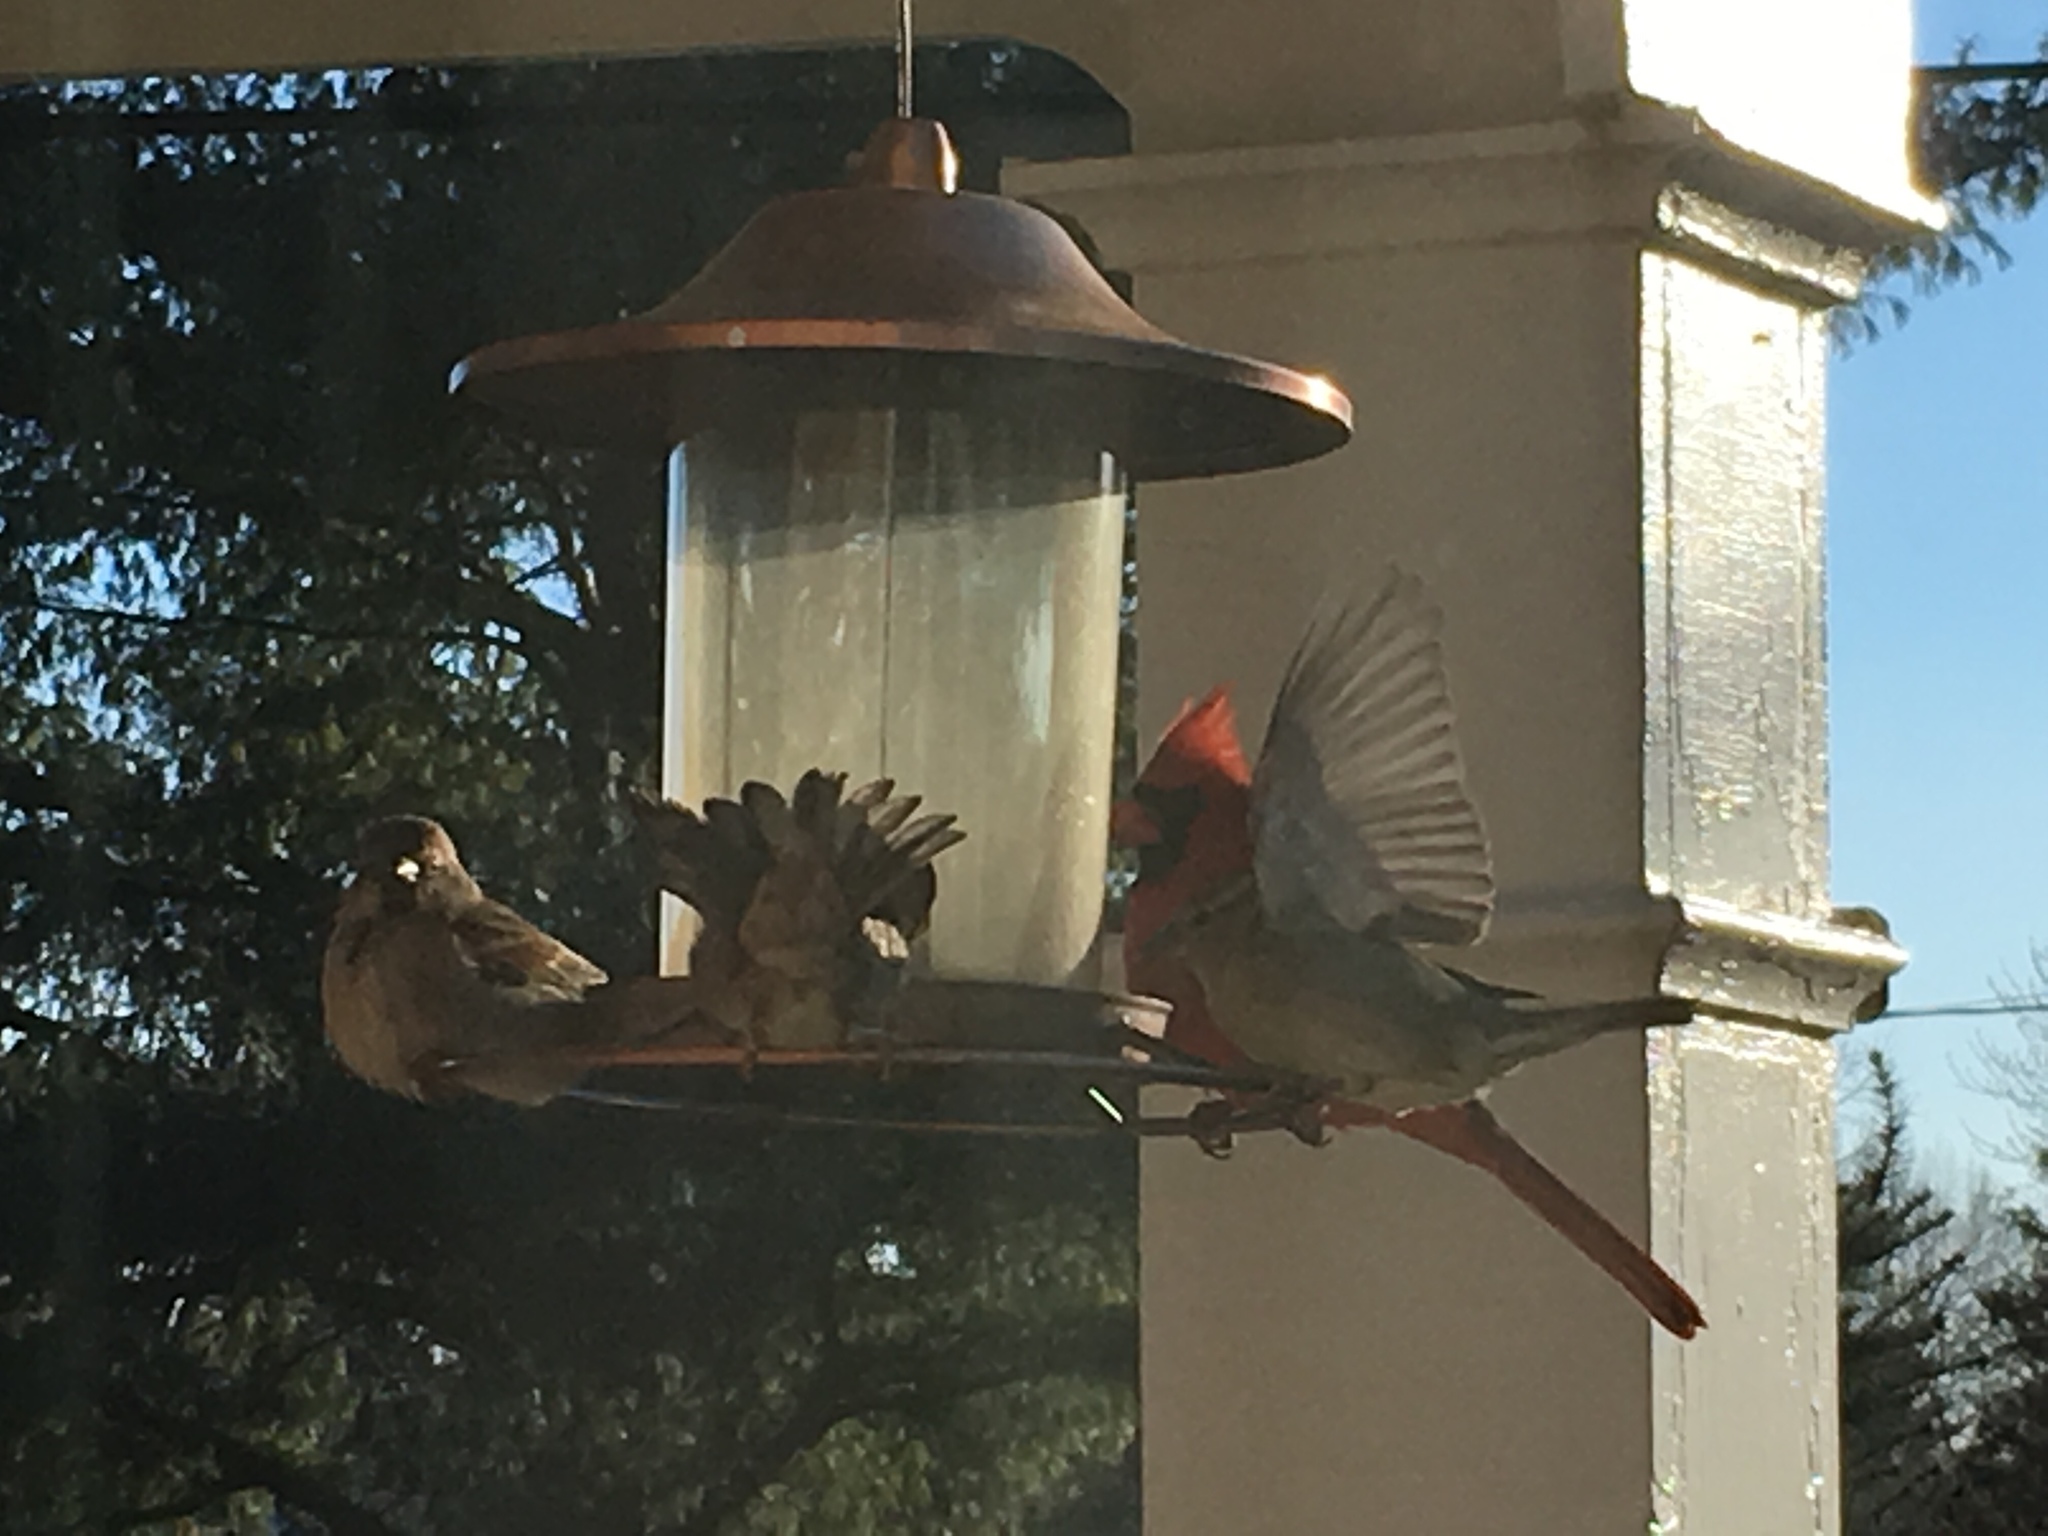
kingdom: Animalia
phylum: Chordata
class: Aves
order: Passeriformes
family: Cardinalidae
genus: Cardinalis
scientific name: Cardinalis cardinalis
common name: Northern cardinal
